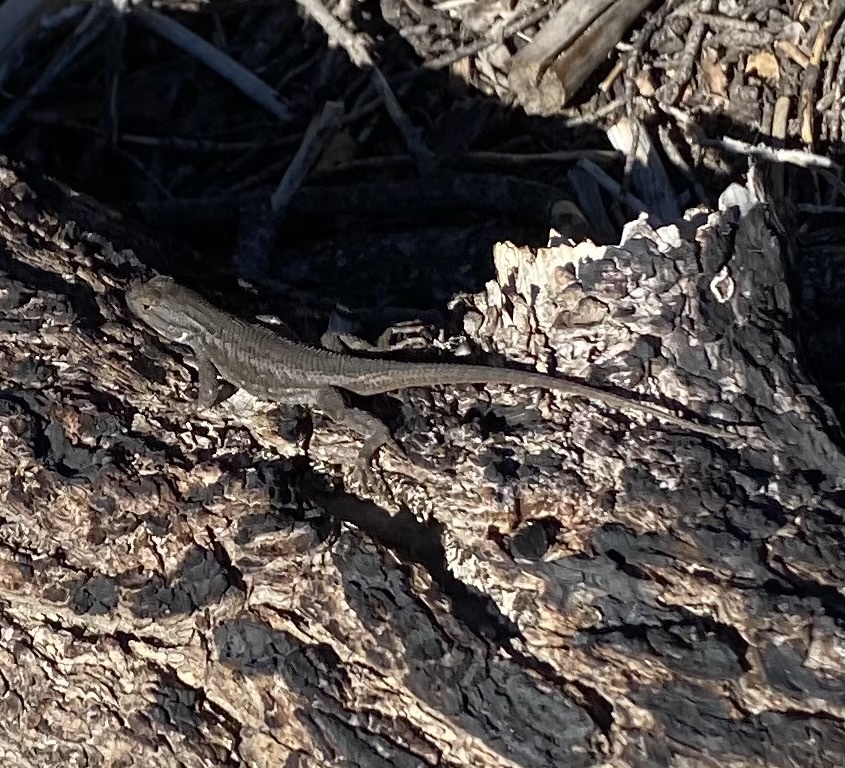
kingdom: Animalia
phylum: Chordata
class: Squamata
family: Phrynosomatidae
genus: Sceloporus
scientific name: Sceloporus tristichus
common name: Plateau fence lizard
